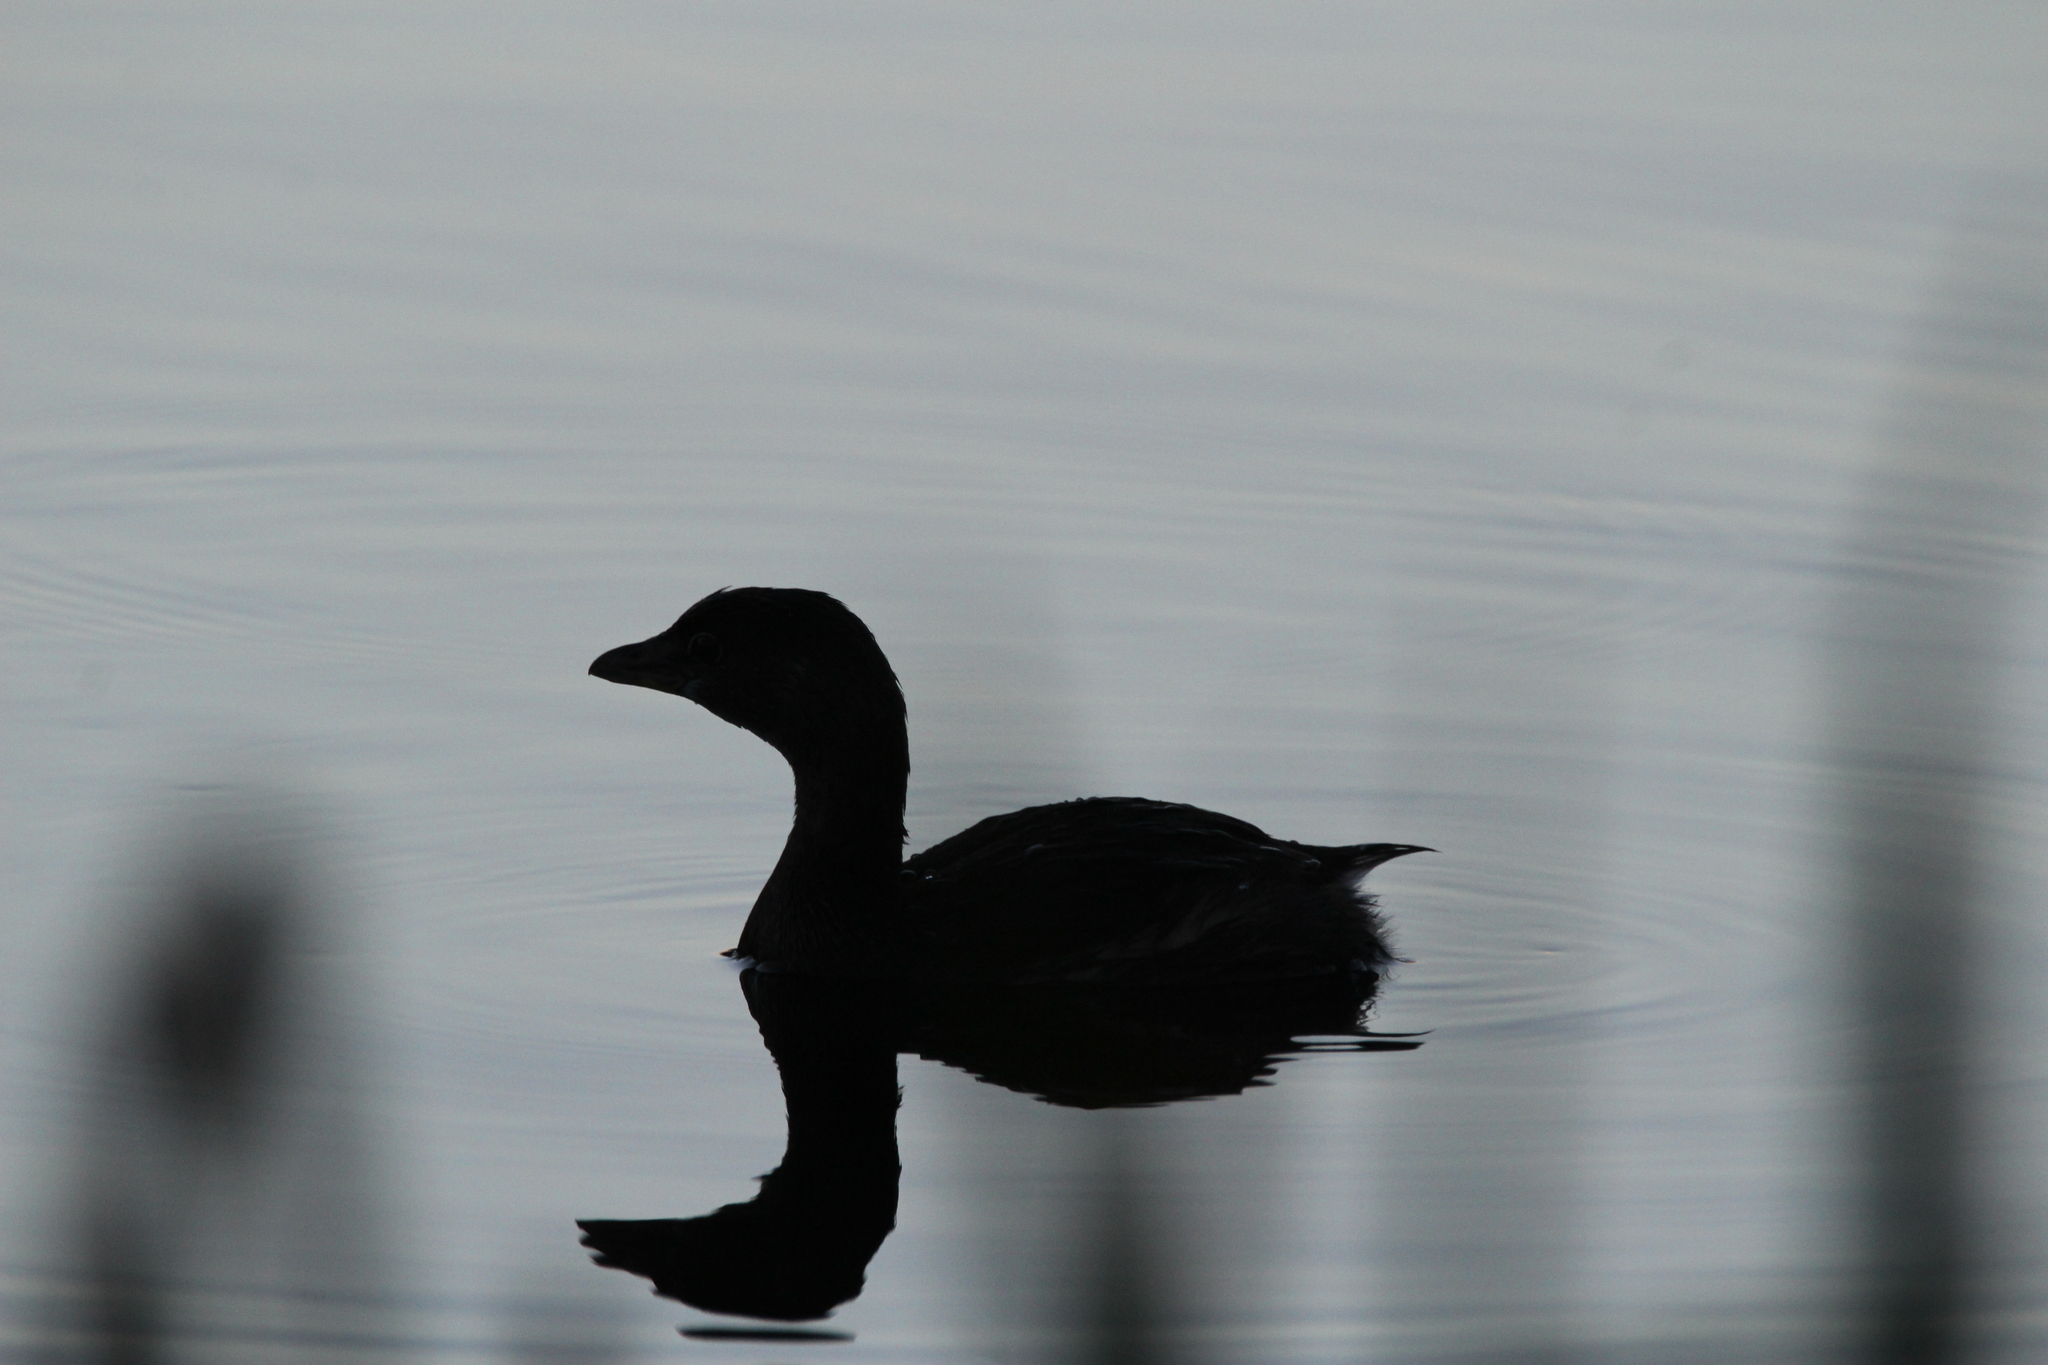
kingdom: Animalia
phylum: Chordata
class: Aves
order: Podicipediformes
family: Podicipedidae
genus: Podilymbus
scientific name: Podilymbus podiceps
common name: Pied-billed grebe
